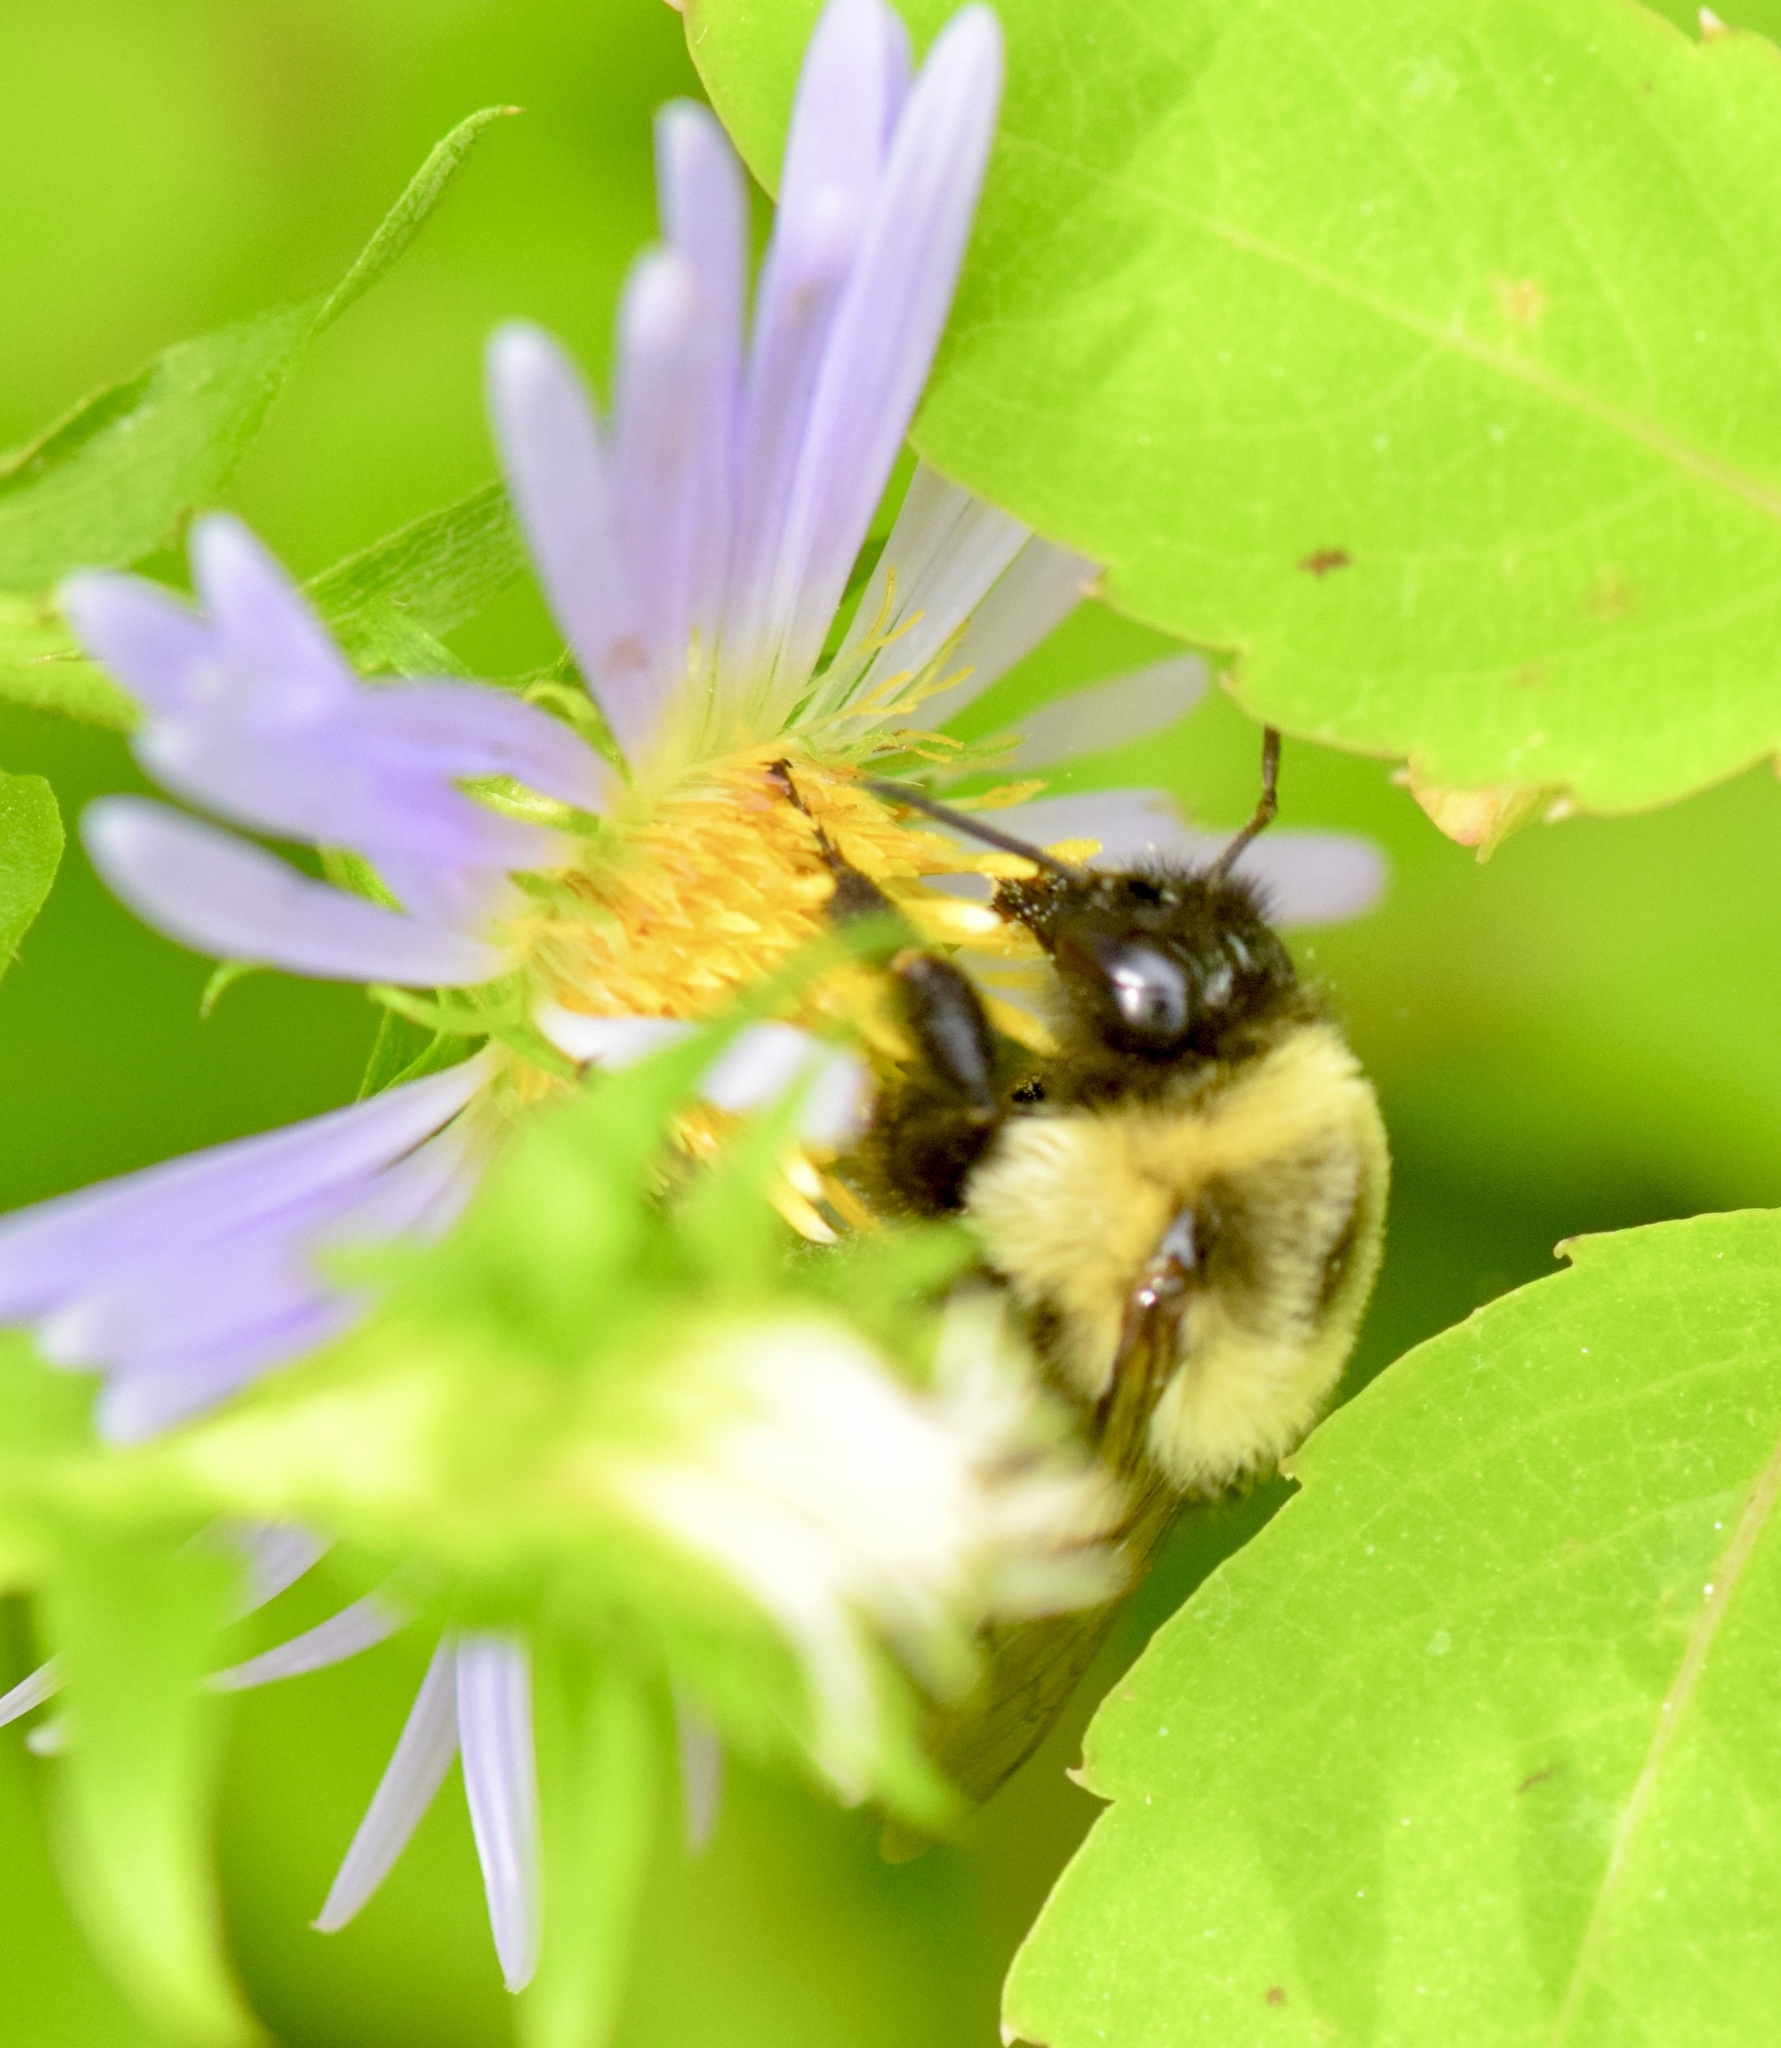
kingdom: Animalia
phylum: Arthropoda
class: Insecta
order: Hymenoptera
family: Apidae
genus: Bombus
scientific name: Bombus impatiens
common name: Common eastern bumble bee
